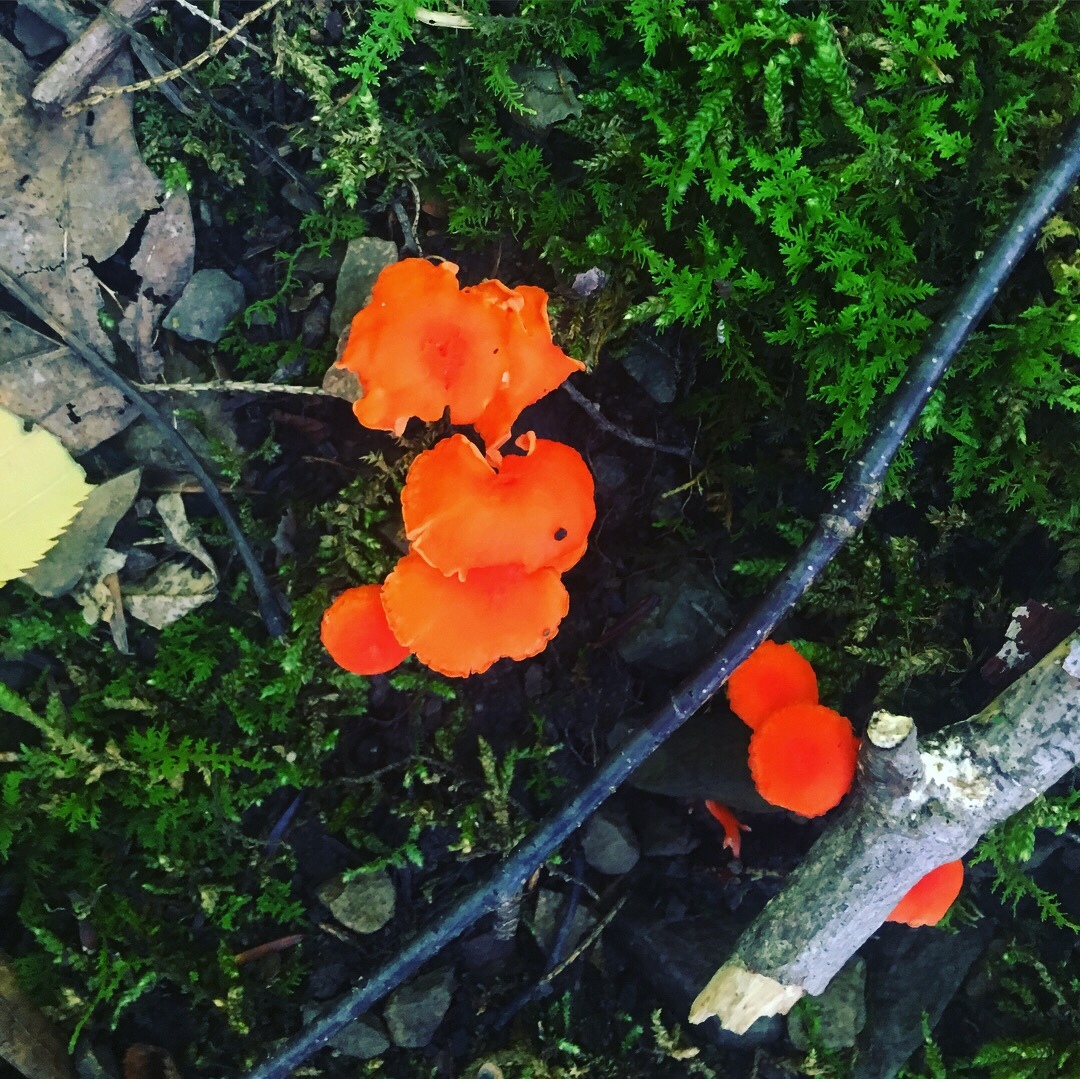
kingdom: Fungi
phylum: Basidiomycota
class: Agaricomycetes
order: Cantharellales
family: Hydnaceae
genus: Cantharellus
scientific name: Cantharellus cinnabarinus
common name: Cinnabar chanterelle
